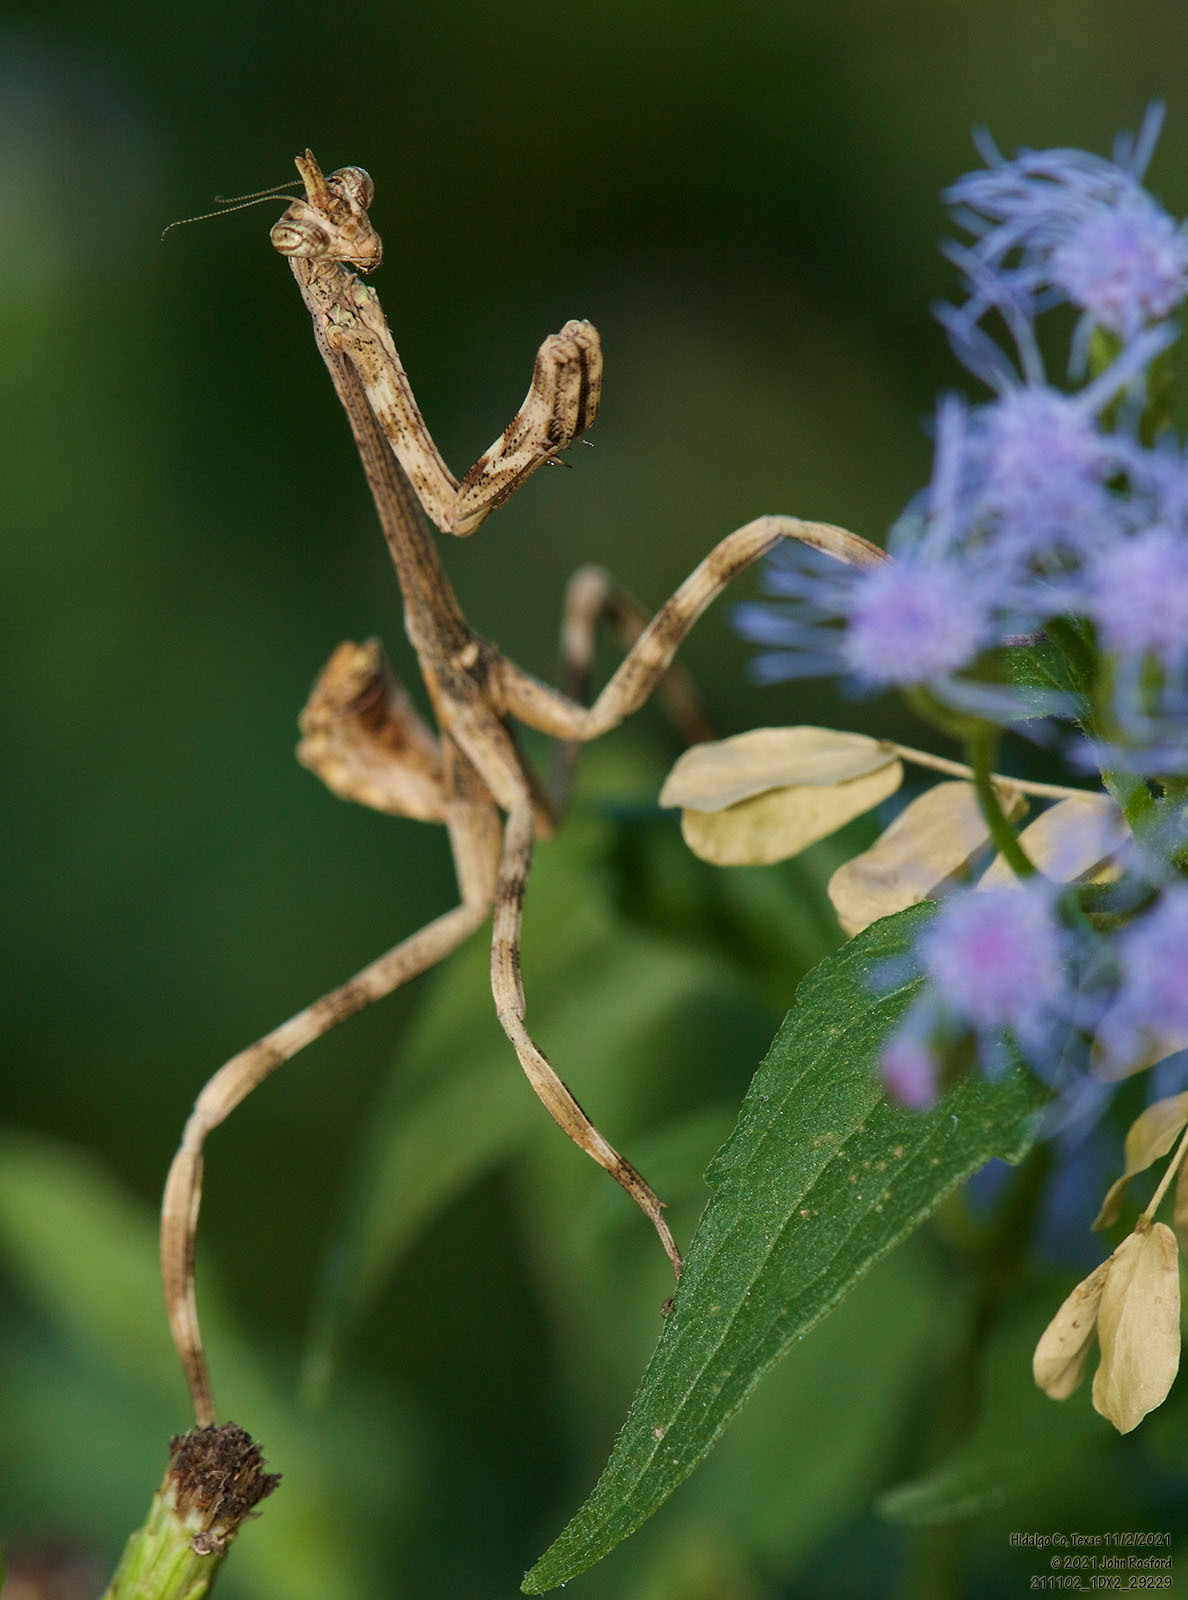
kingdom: Animalia
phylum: Arthropoda
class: Insecta
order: Mantodea
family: Mantidae
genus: Pseudovates
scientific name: Pseudovates chlorophaea
